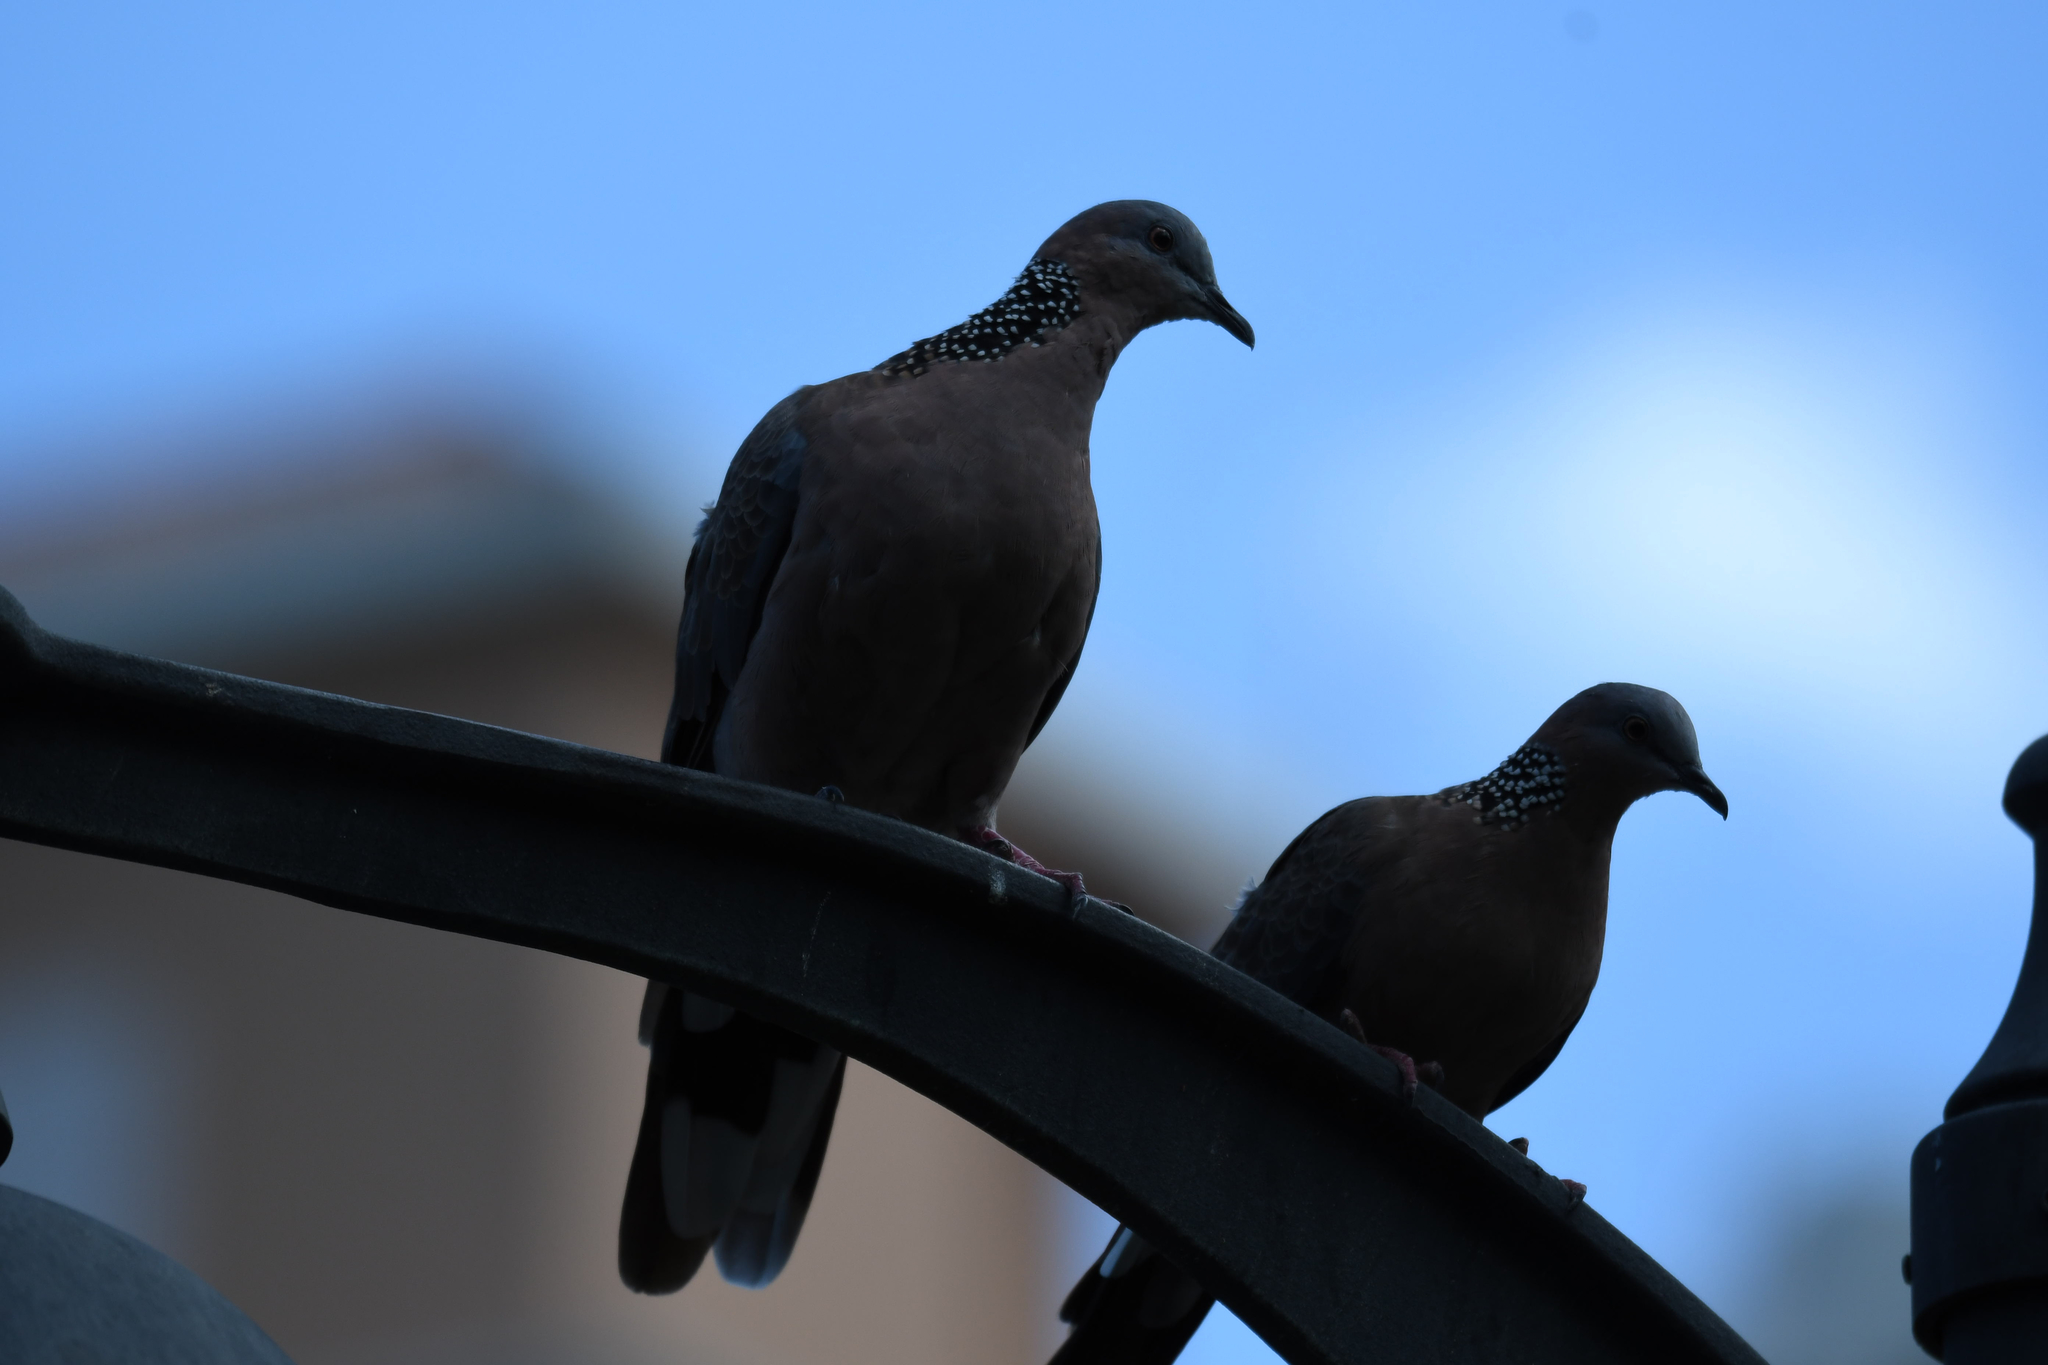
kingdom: Animalia
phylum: Chordata
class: Aves
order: Columbiformes
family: Columbidae
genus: Spilopelia
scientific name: Spilopelia chinensis
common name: Spotted dove
